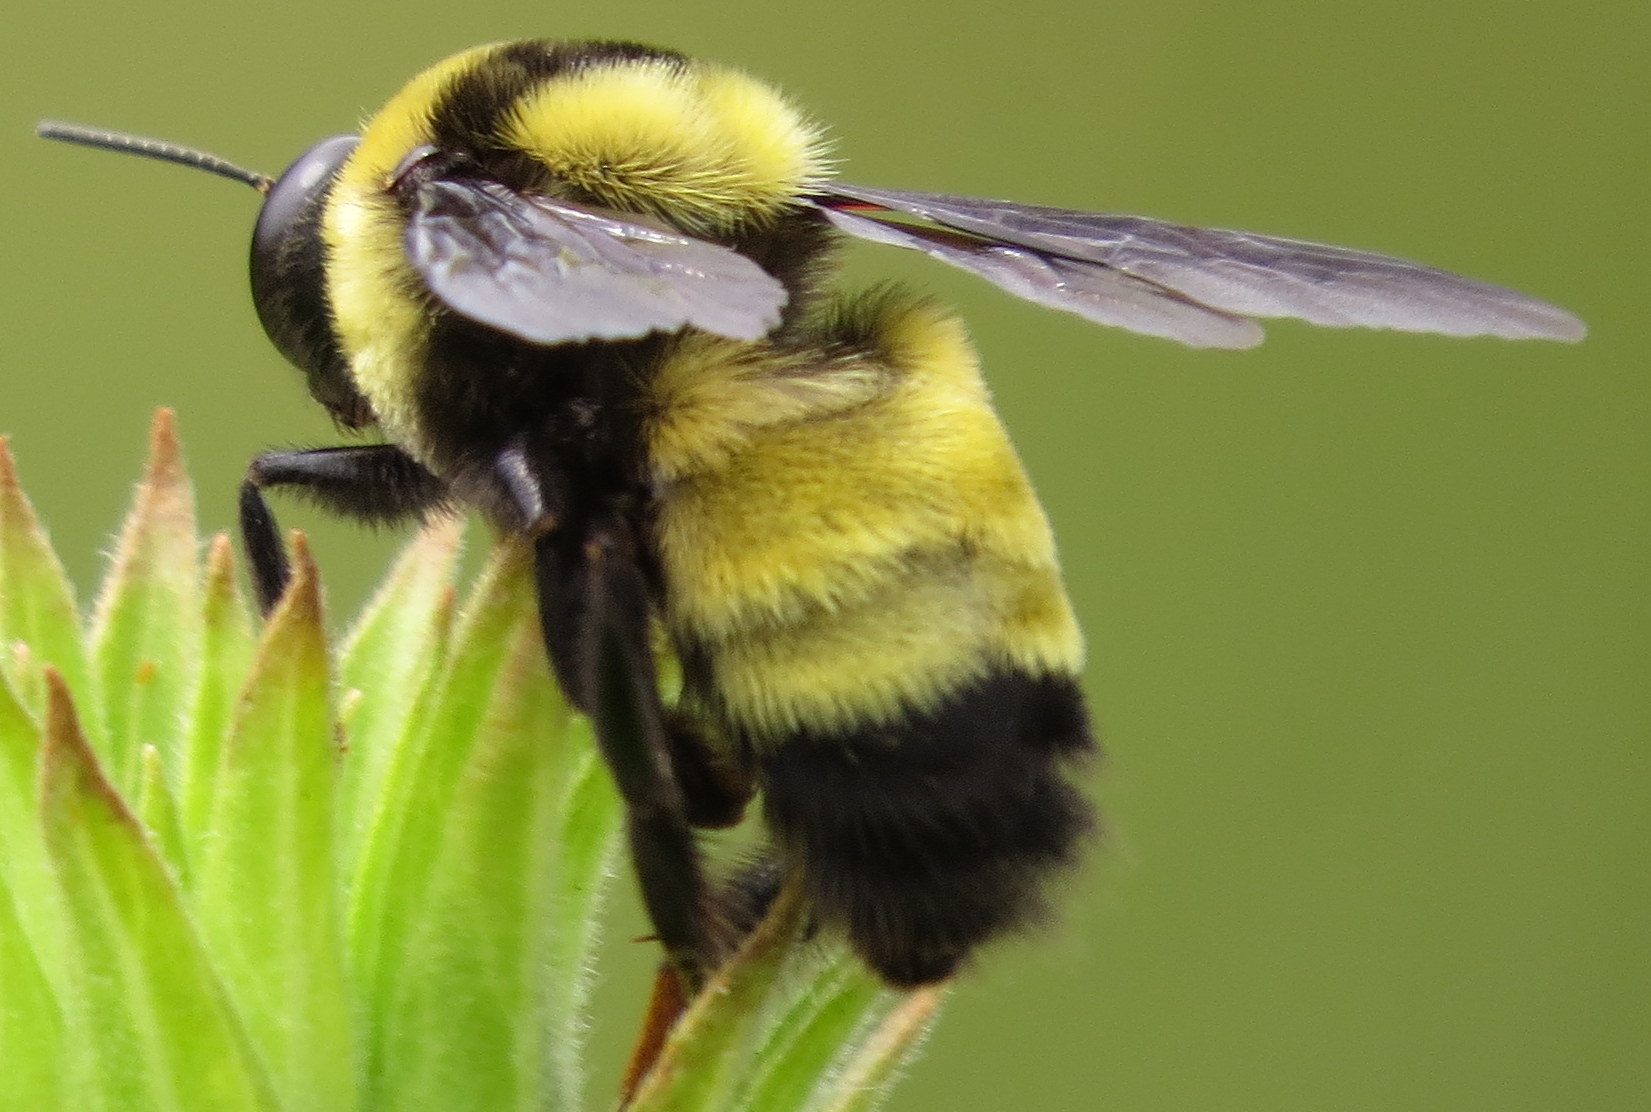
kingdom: Animalia
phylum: Arthropoda
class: Insecta
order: Hymenoptera
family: Apidae
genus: Bombus
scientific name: Bombus auricomus
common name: Black and gold bumble bee
